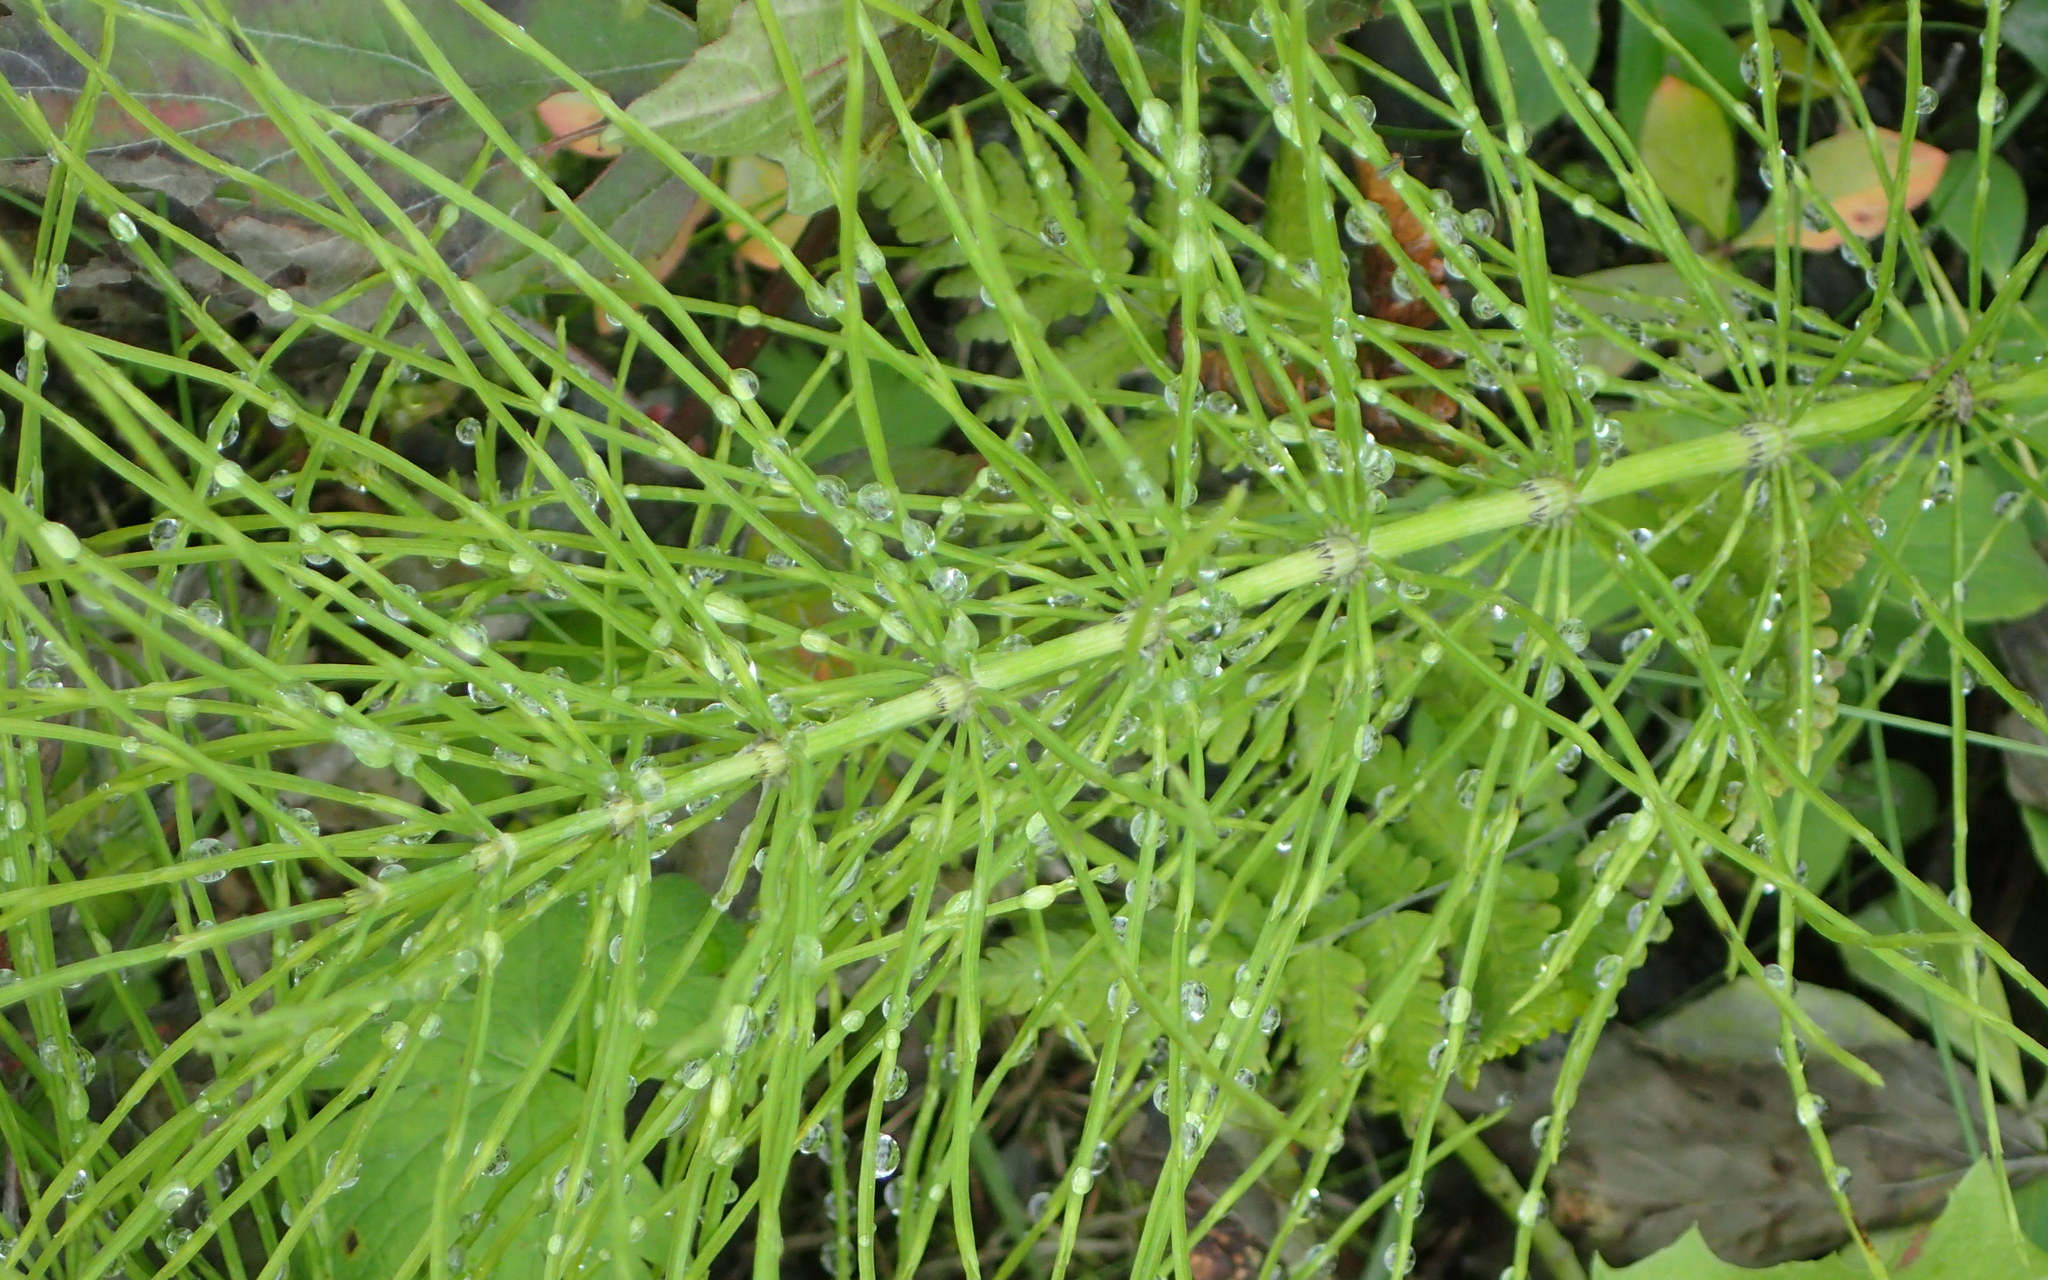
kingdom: Plantae
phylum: Tracheophyta
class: Polypodiopsida
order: Equisetales
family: Equisetaceae
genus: Equisetum
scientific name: Equisetum arvense
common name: Field horsetail
